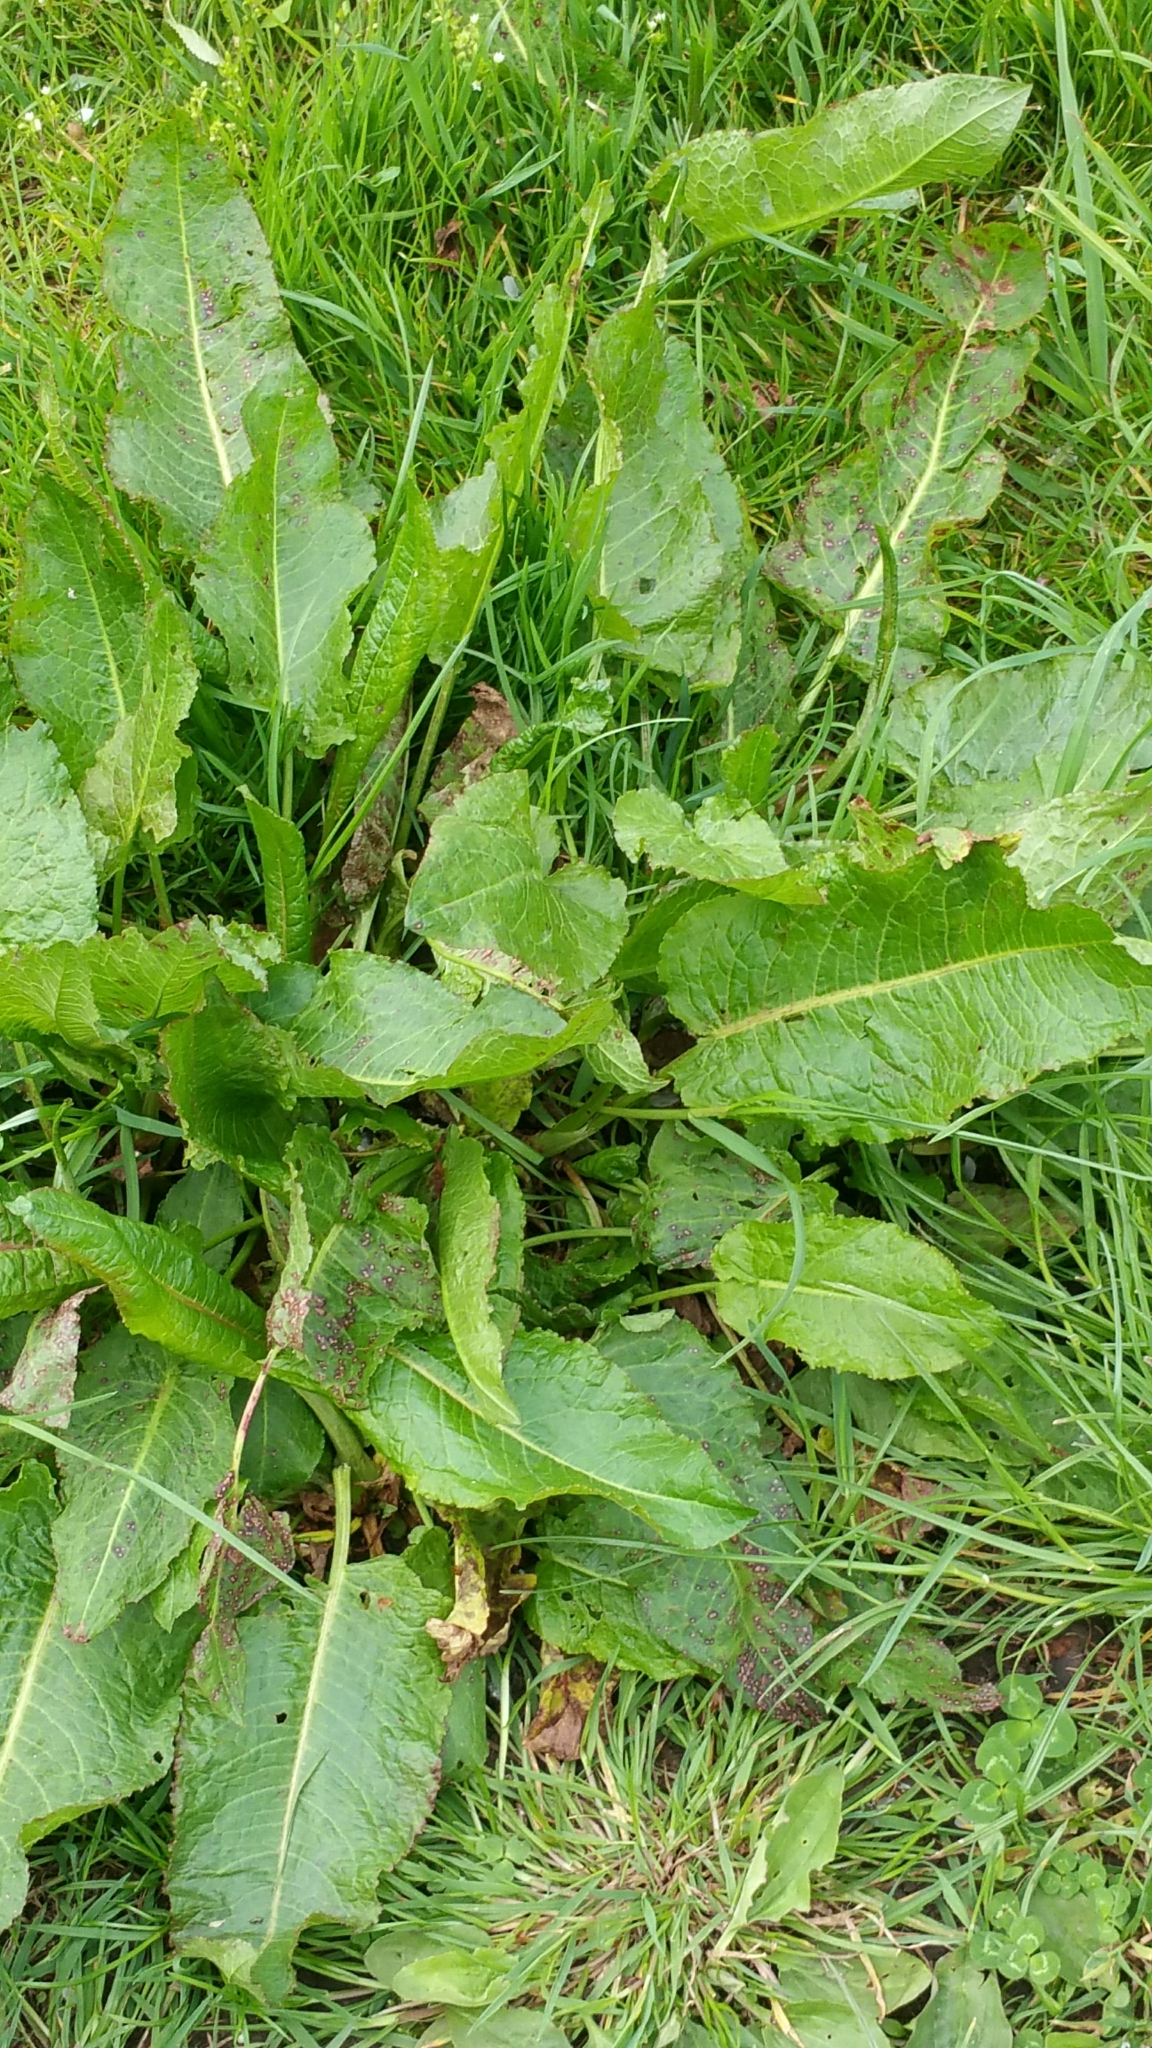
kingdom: Plantae
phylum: Tracheophyta
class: Magnoliopsida
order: Caryophyllales
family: Polygonaceae
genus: Rumex
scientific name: Rumex obtusifolius
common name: Bitter dock
